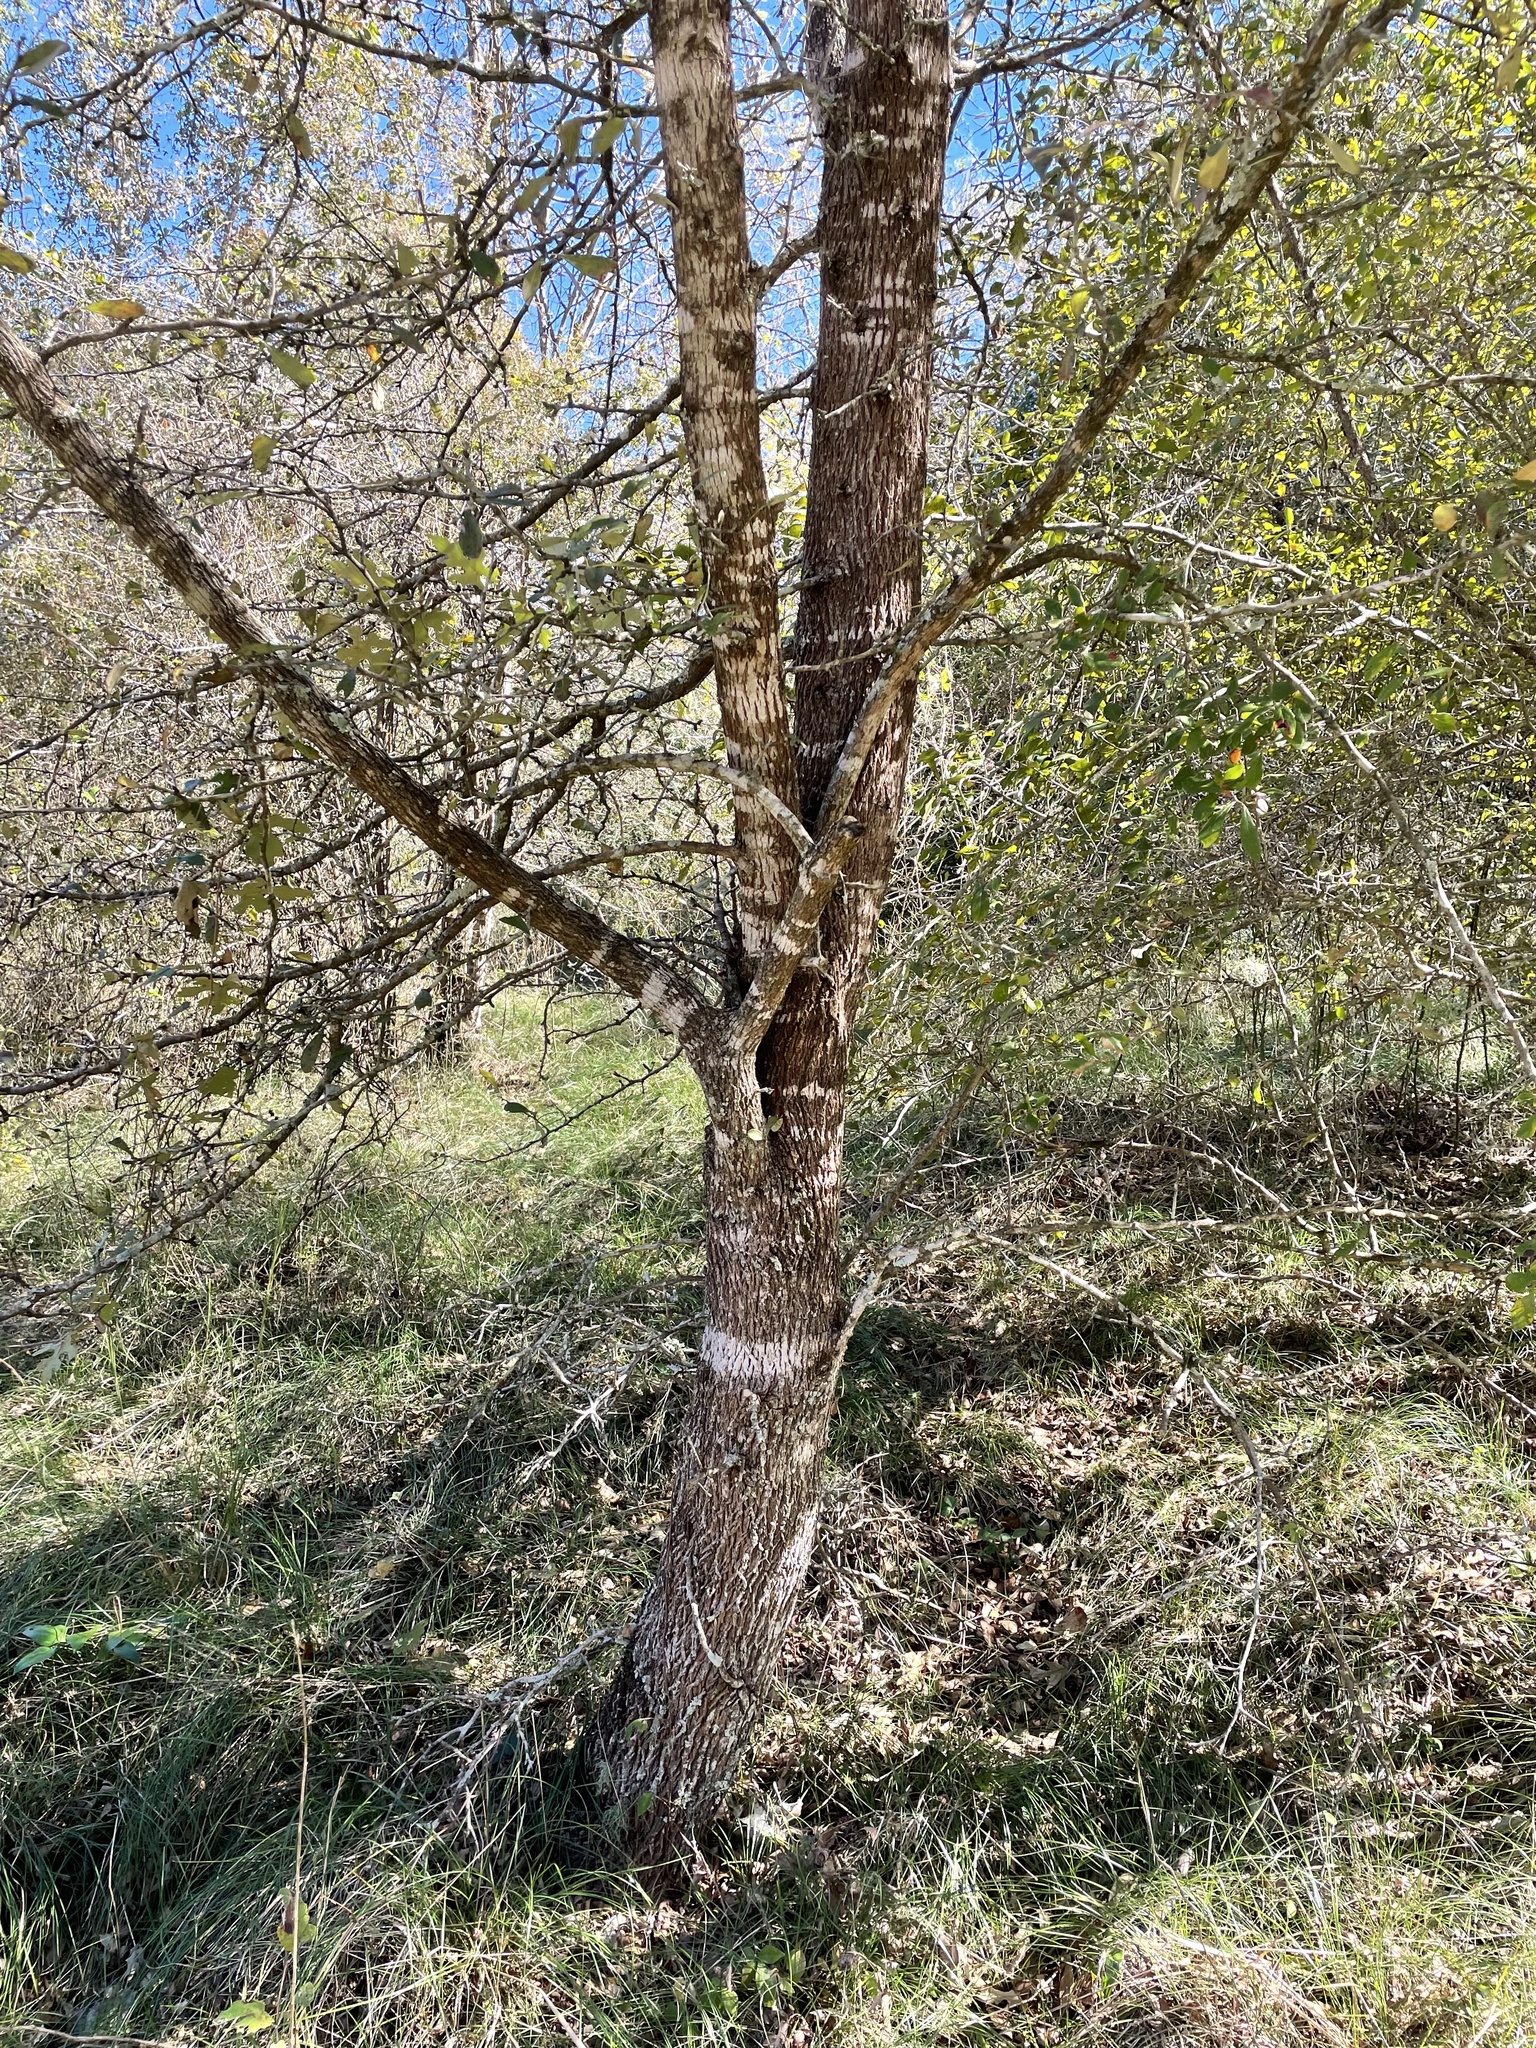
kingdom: Plantae
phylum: Tracheophyta
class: Magnoliopsida
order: Ericales
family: Sapotaceae
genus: Sideroxylon
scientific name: Sideroxylon lanuginosum
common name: Chittamwood
